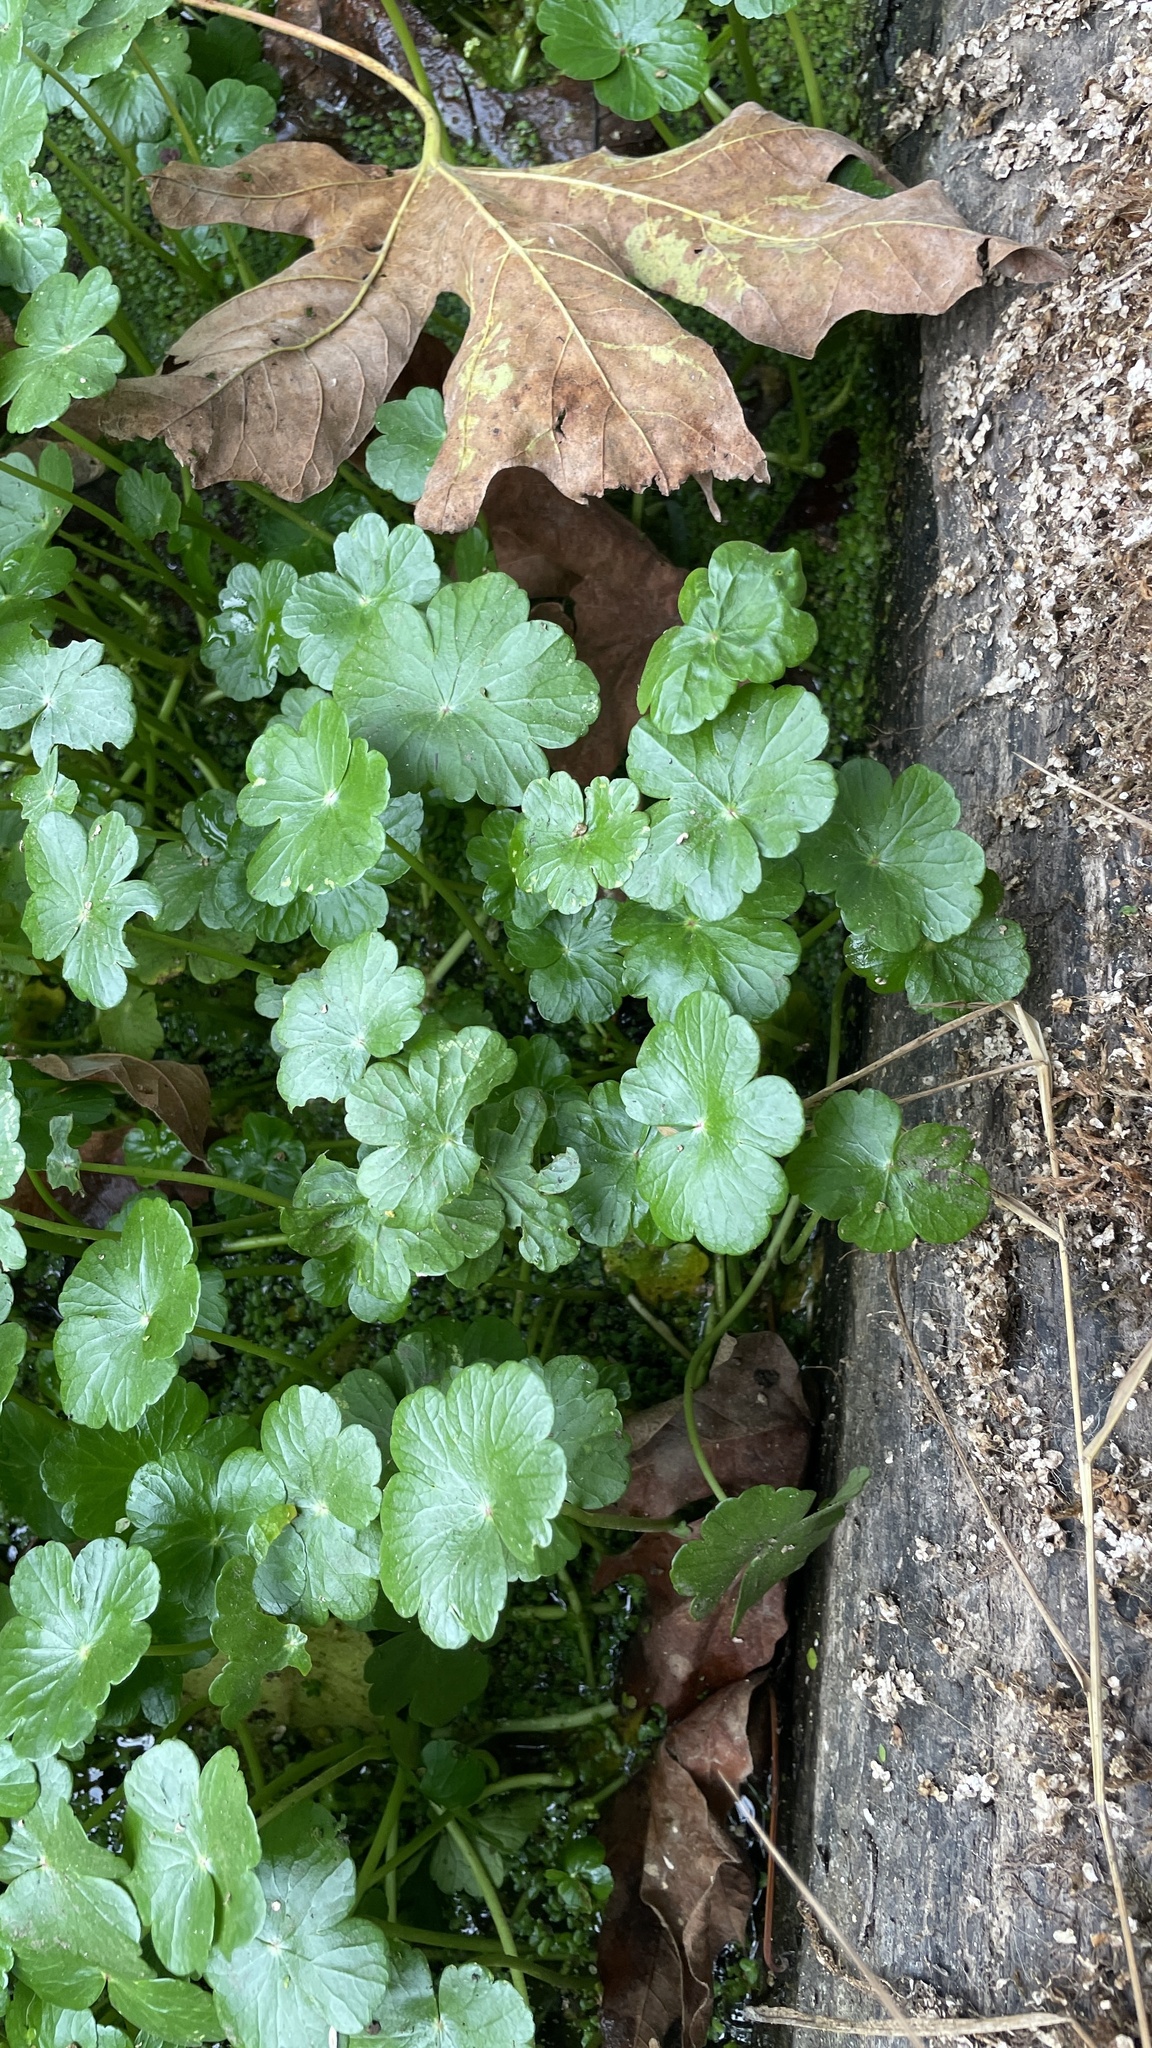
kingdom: Plantae
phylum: Tracheophyta
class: Magnoliopsida
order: Apiales
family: Araliaceae
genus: Hydrocotyle
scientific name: Hydrocotyle ranunculoides
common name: Floating pennywort
